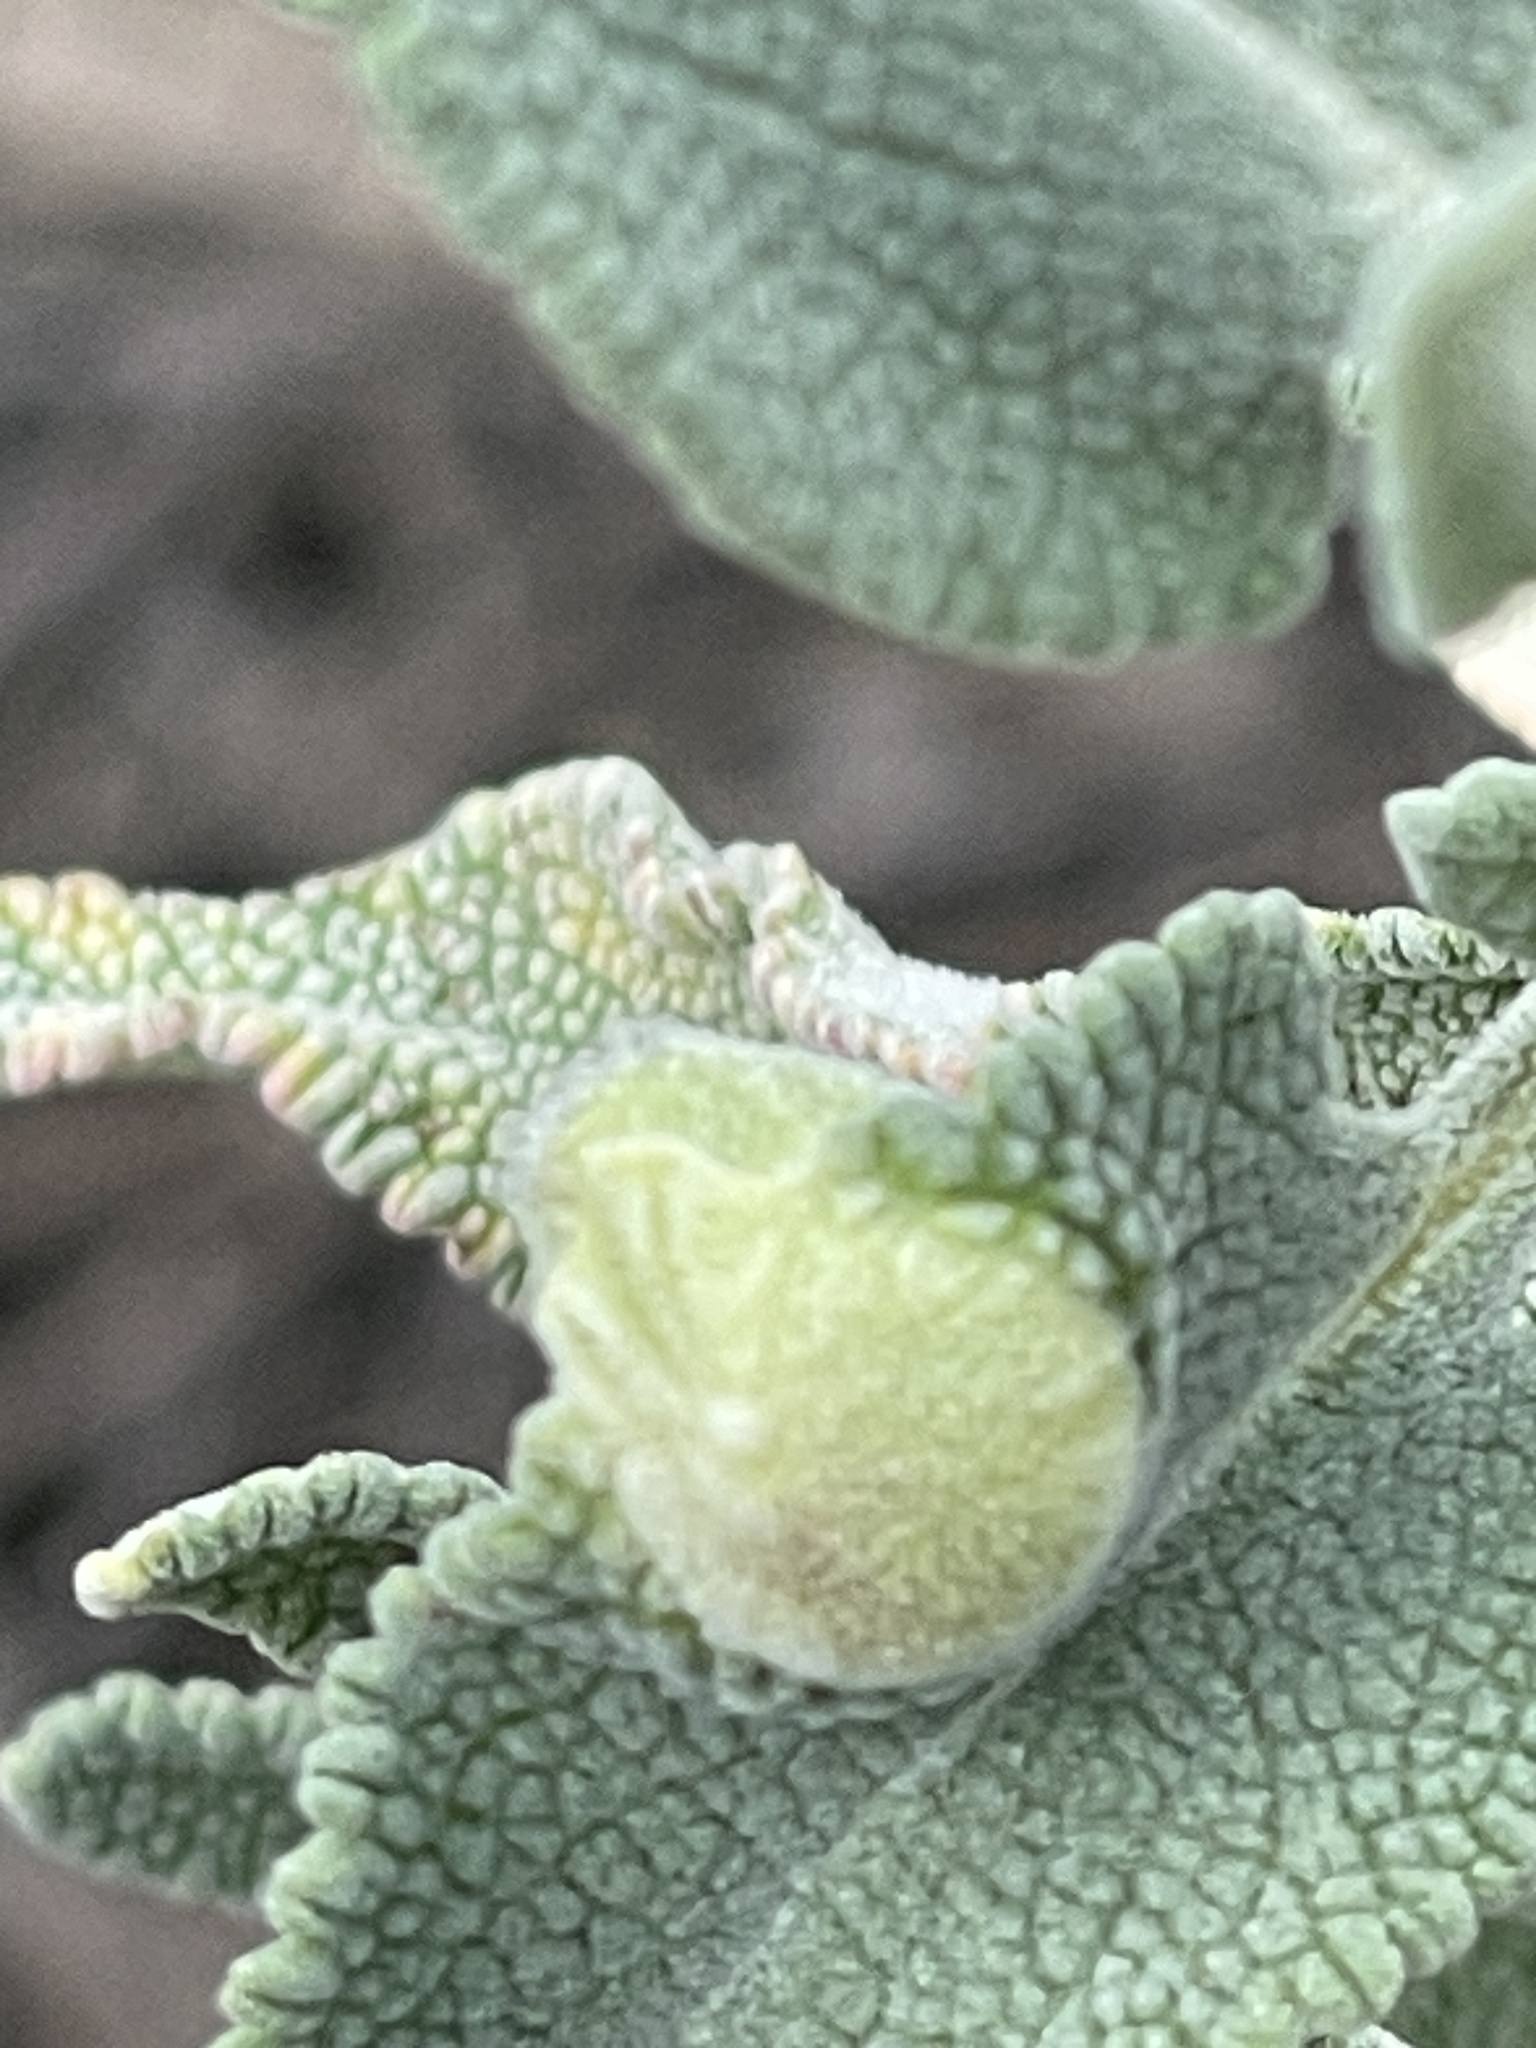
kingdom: Animalia
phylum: Arthropoda
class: Insecta
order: Diptera
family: Cecidomyiidae
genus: Rhopalomyia
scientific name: Rhopalomyia audibertiae
